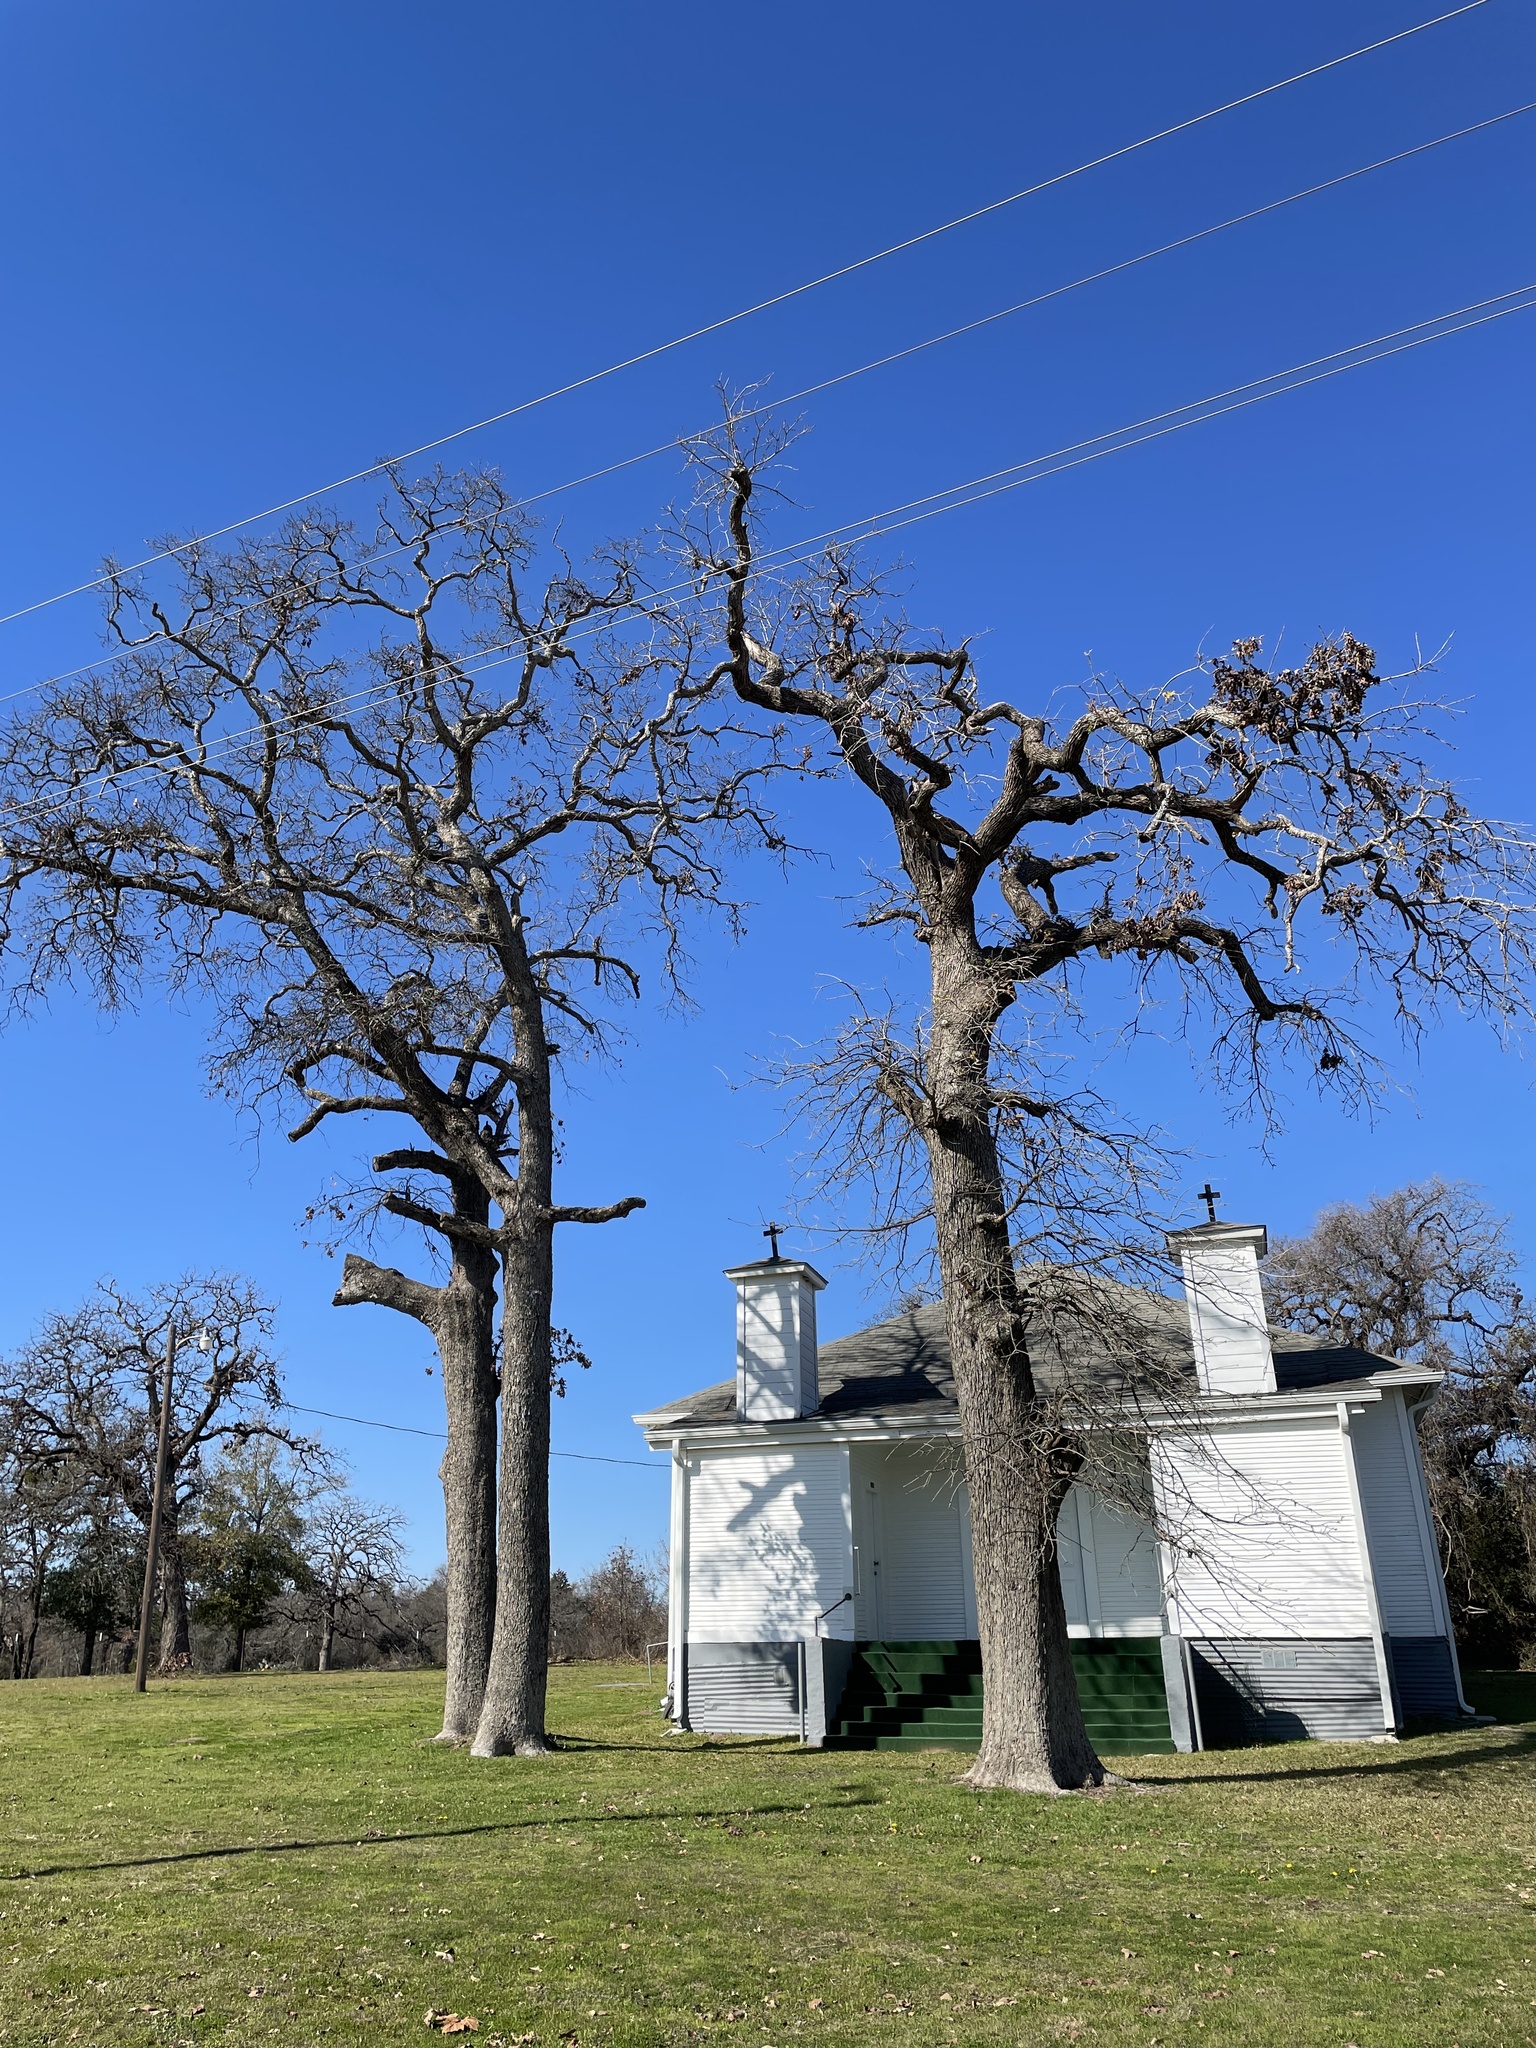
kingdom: Plantae
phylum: Tracheophyta
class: Magnoliopsida
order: Fagales
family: Fagaceae
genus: Quercus
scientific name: Quercus stellata
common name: Post oak
